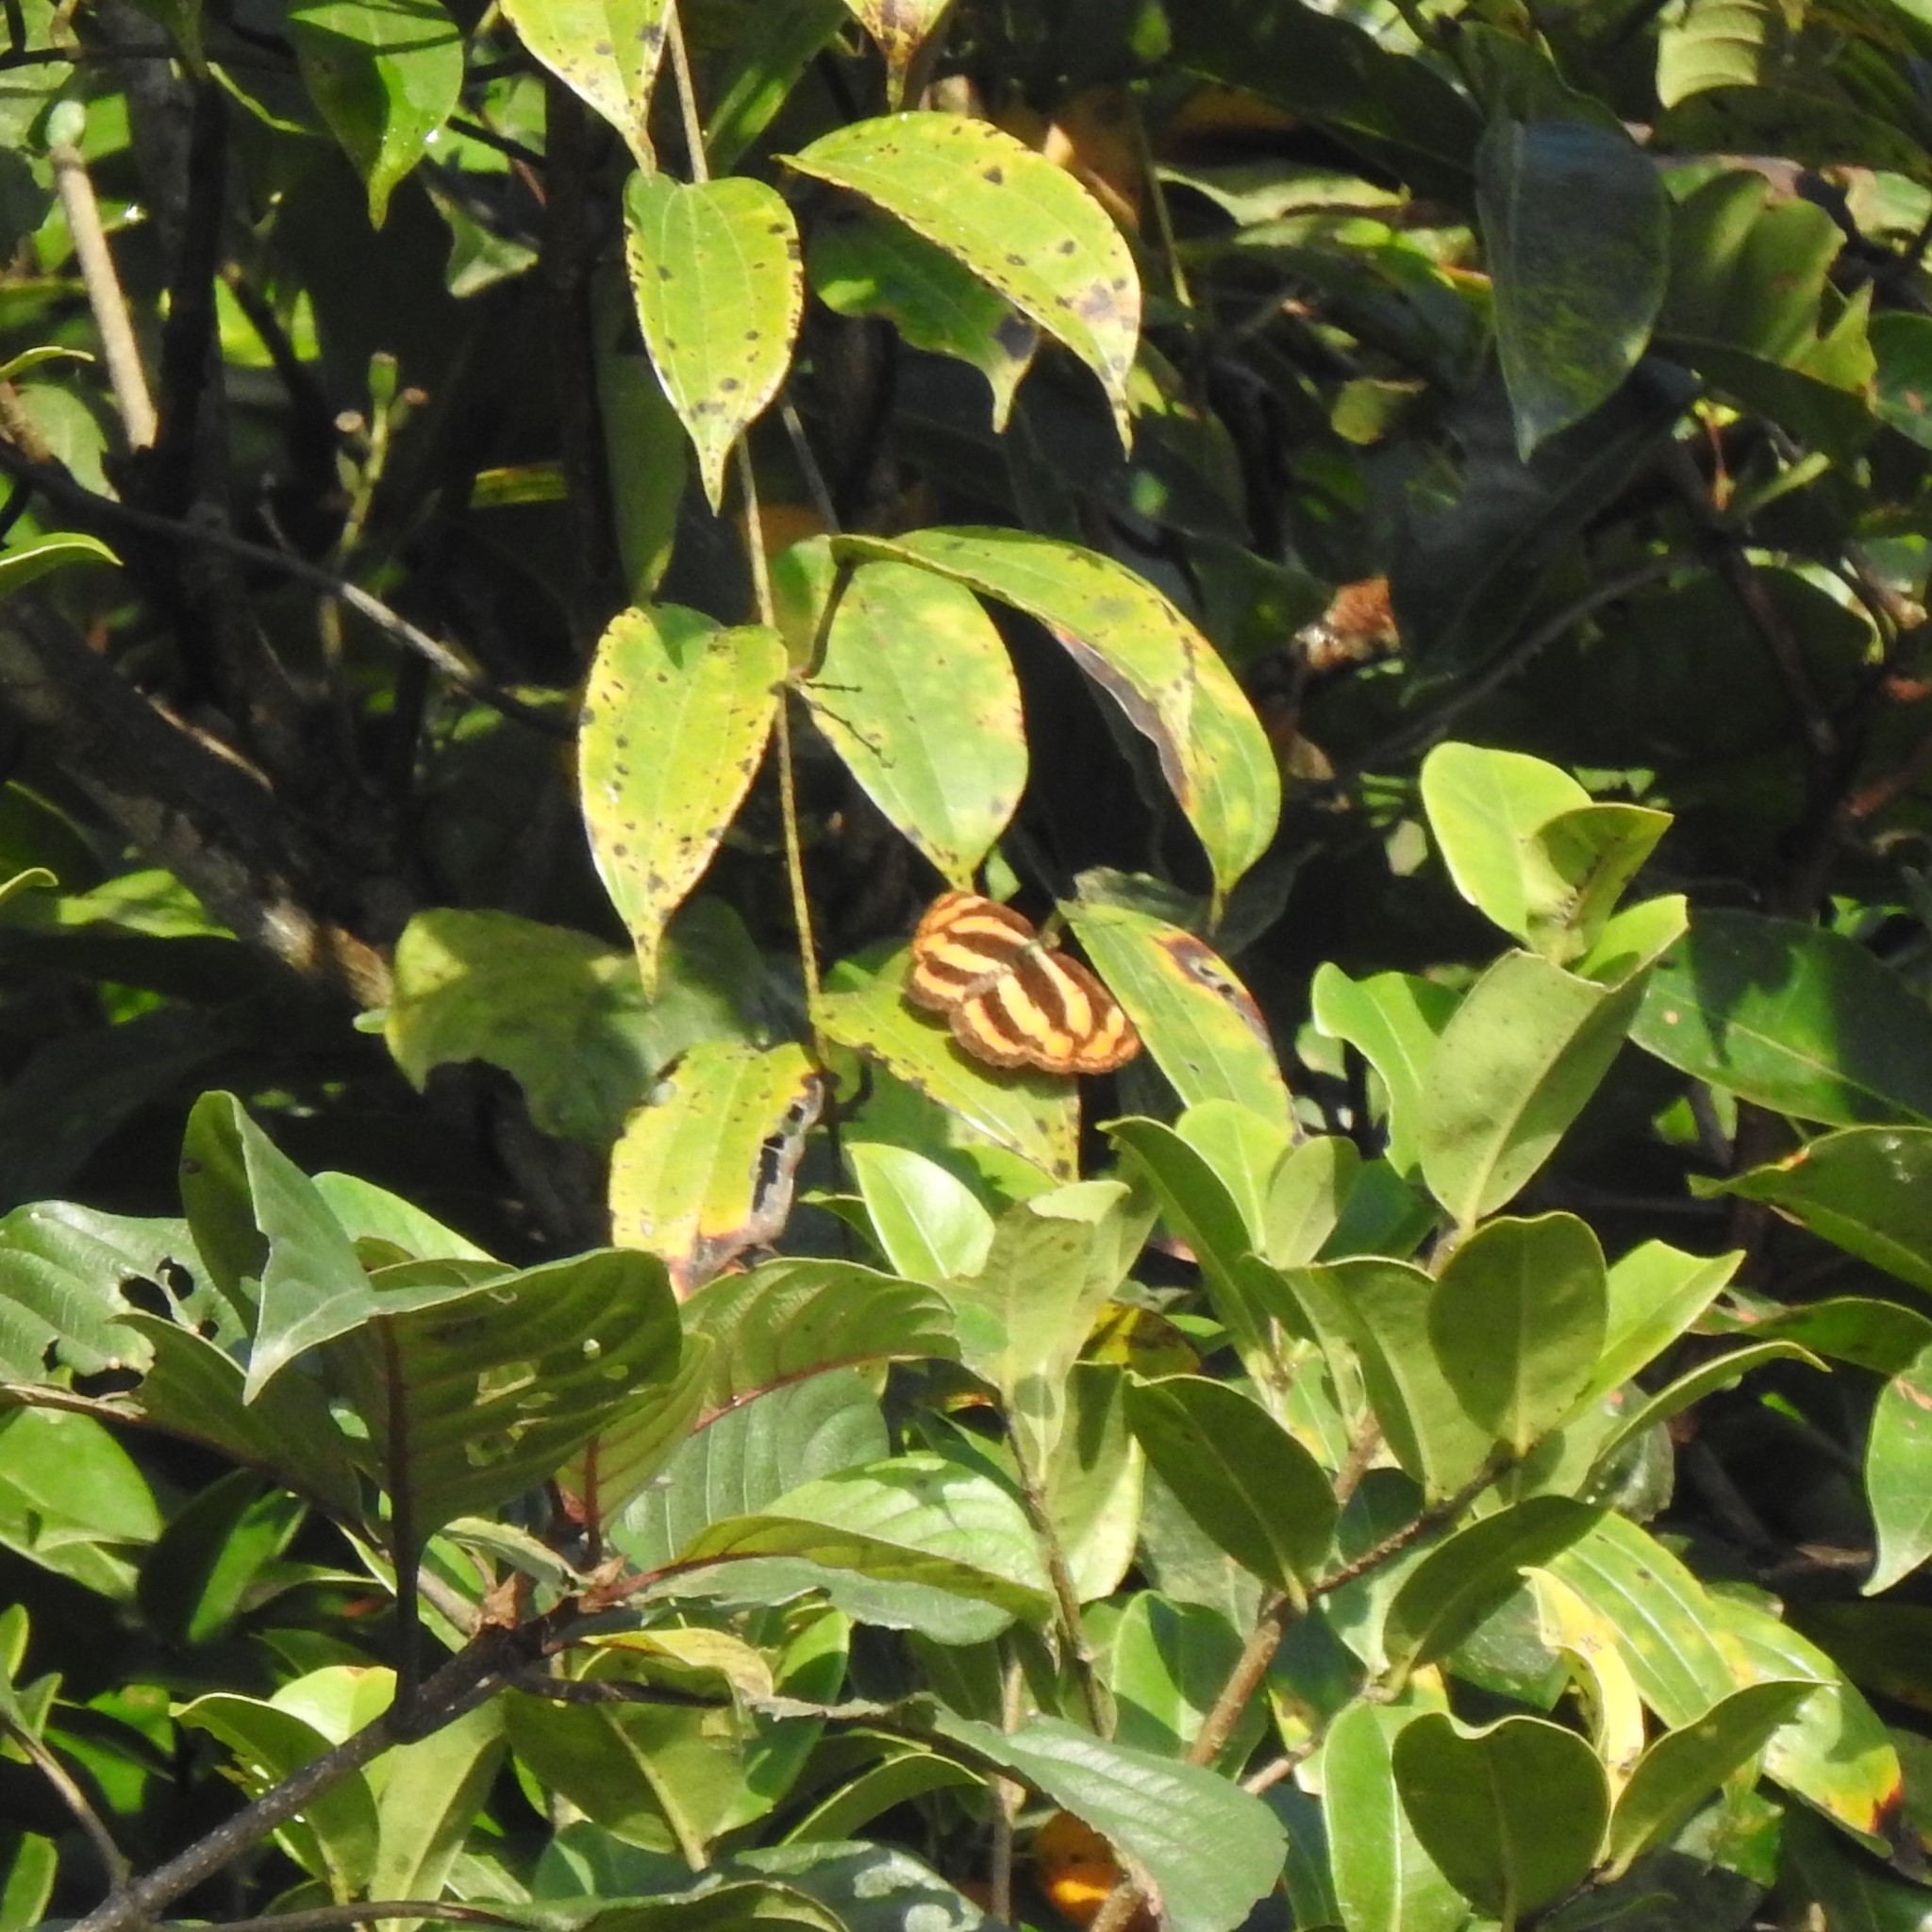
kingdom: Animalia
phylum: Arthropoda
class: Insecta
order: Lepidoptera
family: Nymphalidae
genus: Pantoporia
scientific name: Pantoporia hordonia
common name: Common lascar
